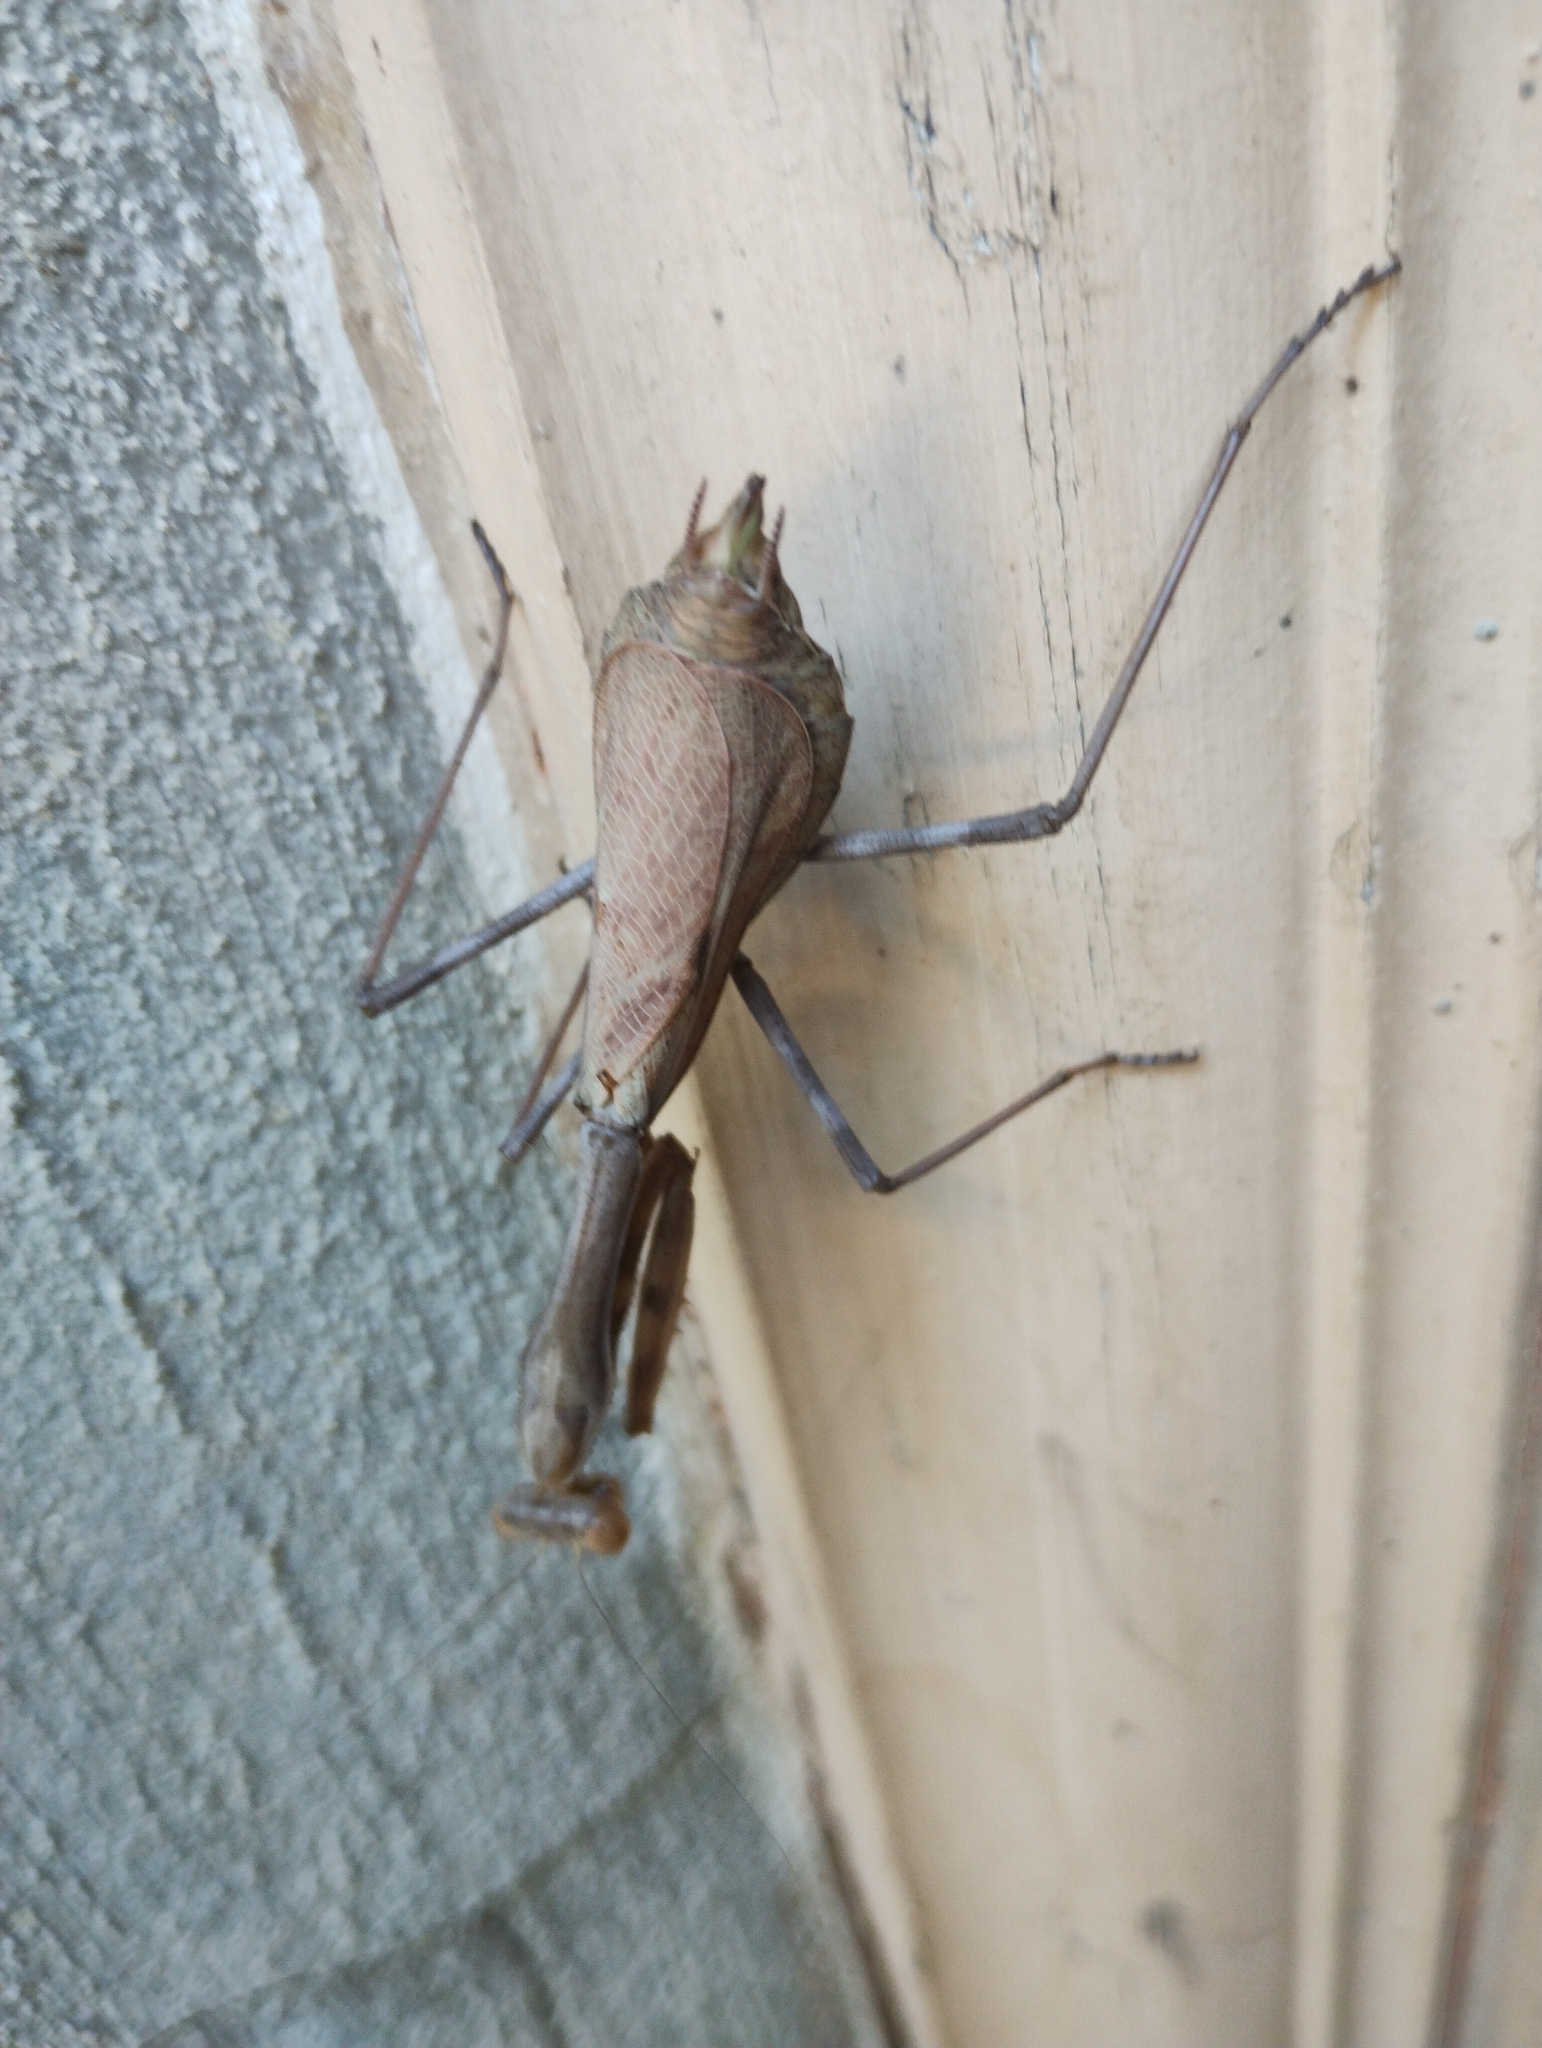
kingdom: Animalia
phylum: Arthropoda
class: Insecta
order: Mantodea
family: Mantidae
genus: Stagmomantis
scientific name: Stagmomantis limbata
